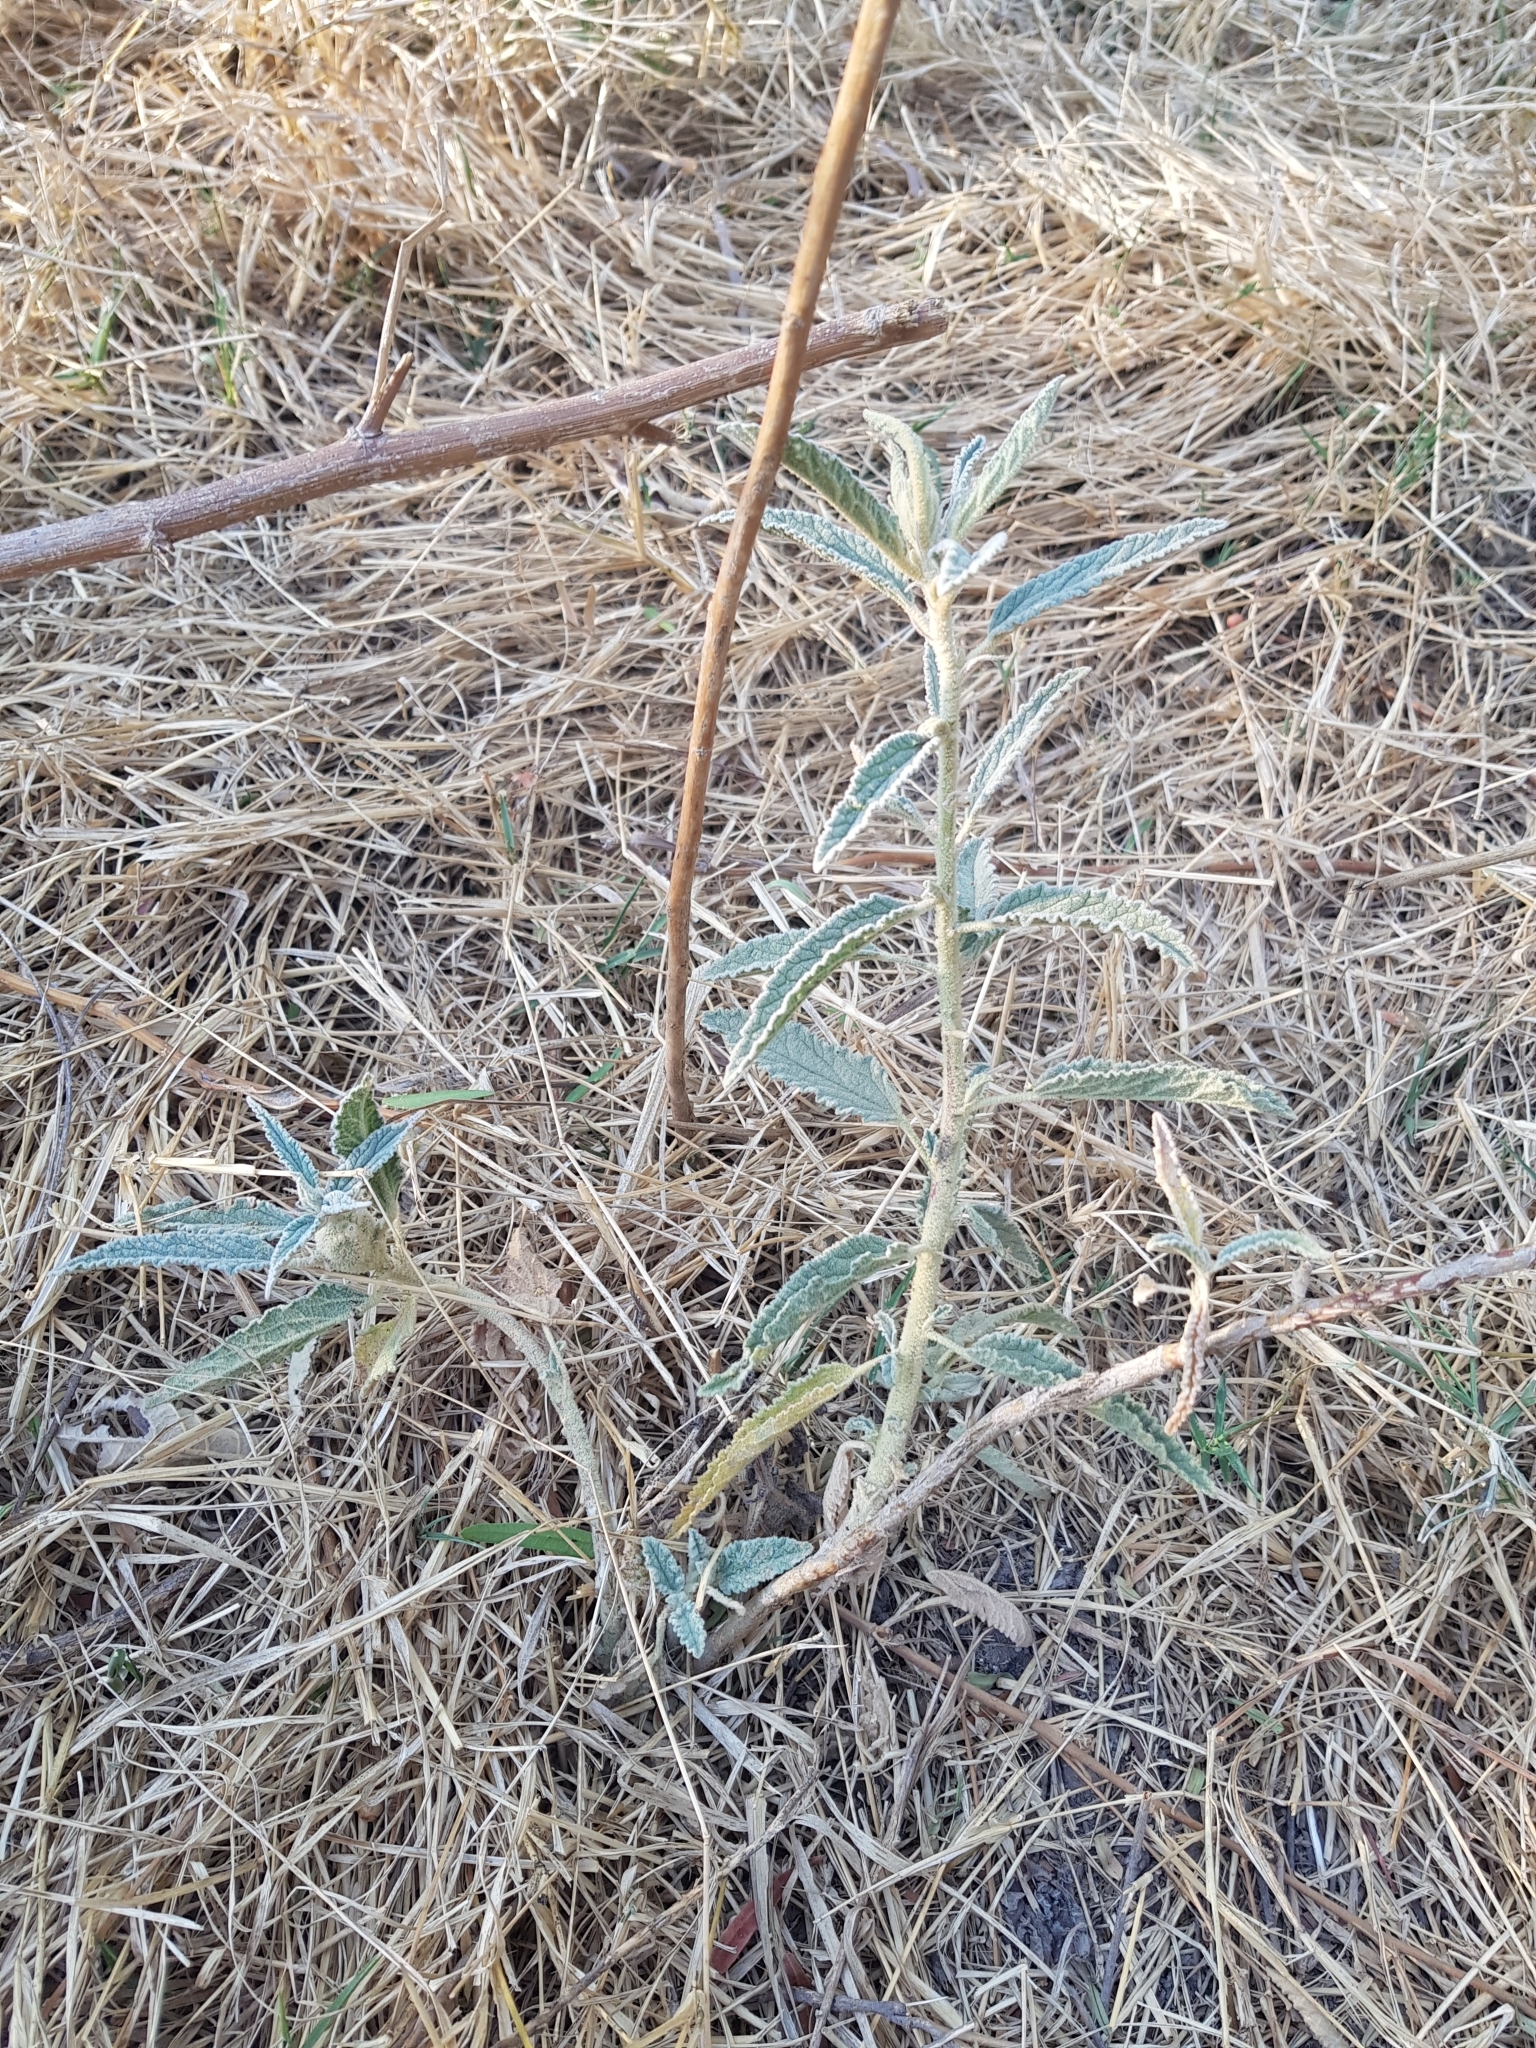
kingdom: Plantae
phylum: Tracheophyta
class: Magnoliopsida
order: Malvales
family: Malvaceae
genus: Sphaeralcea
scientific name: Sphaeralcea angustifolia
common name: Copper globe-mallow
